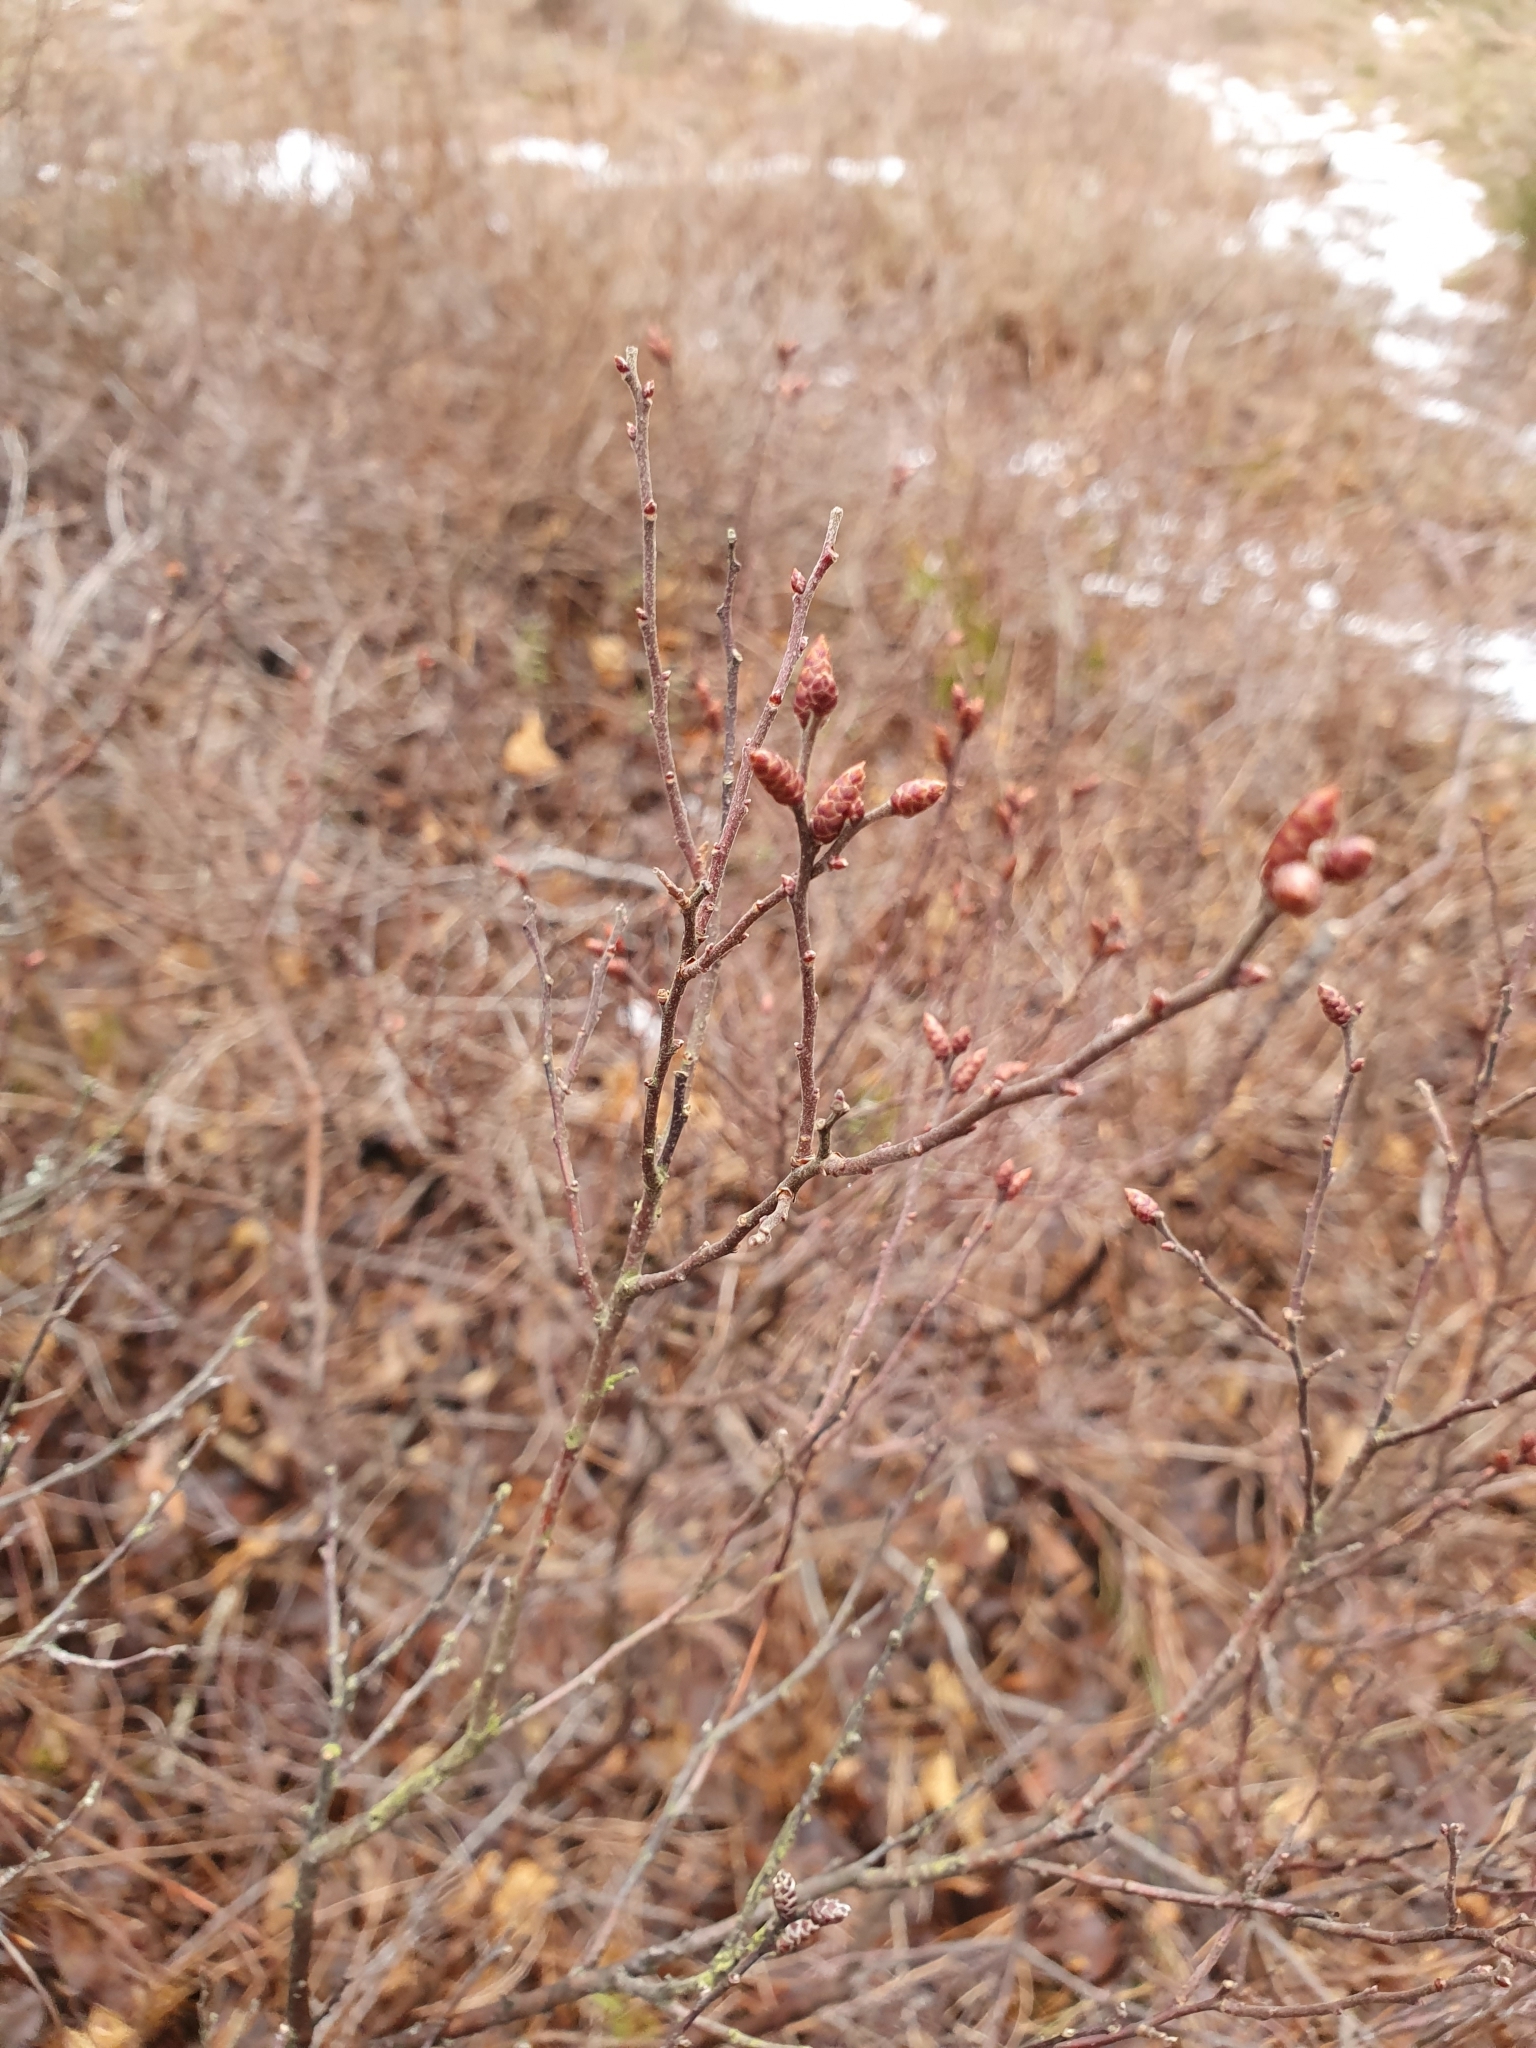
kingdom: Plantae
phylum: Tracheophyta
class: Magnoliopsida
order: Fagales
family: Myricaceae
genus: Myrica
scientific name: Myrica gale
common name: Sweet gale
